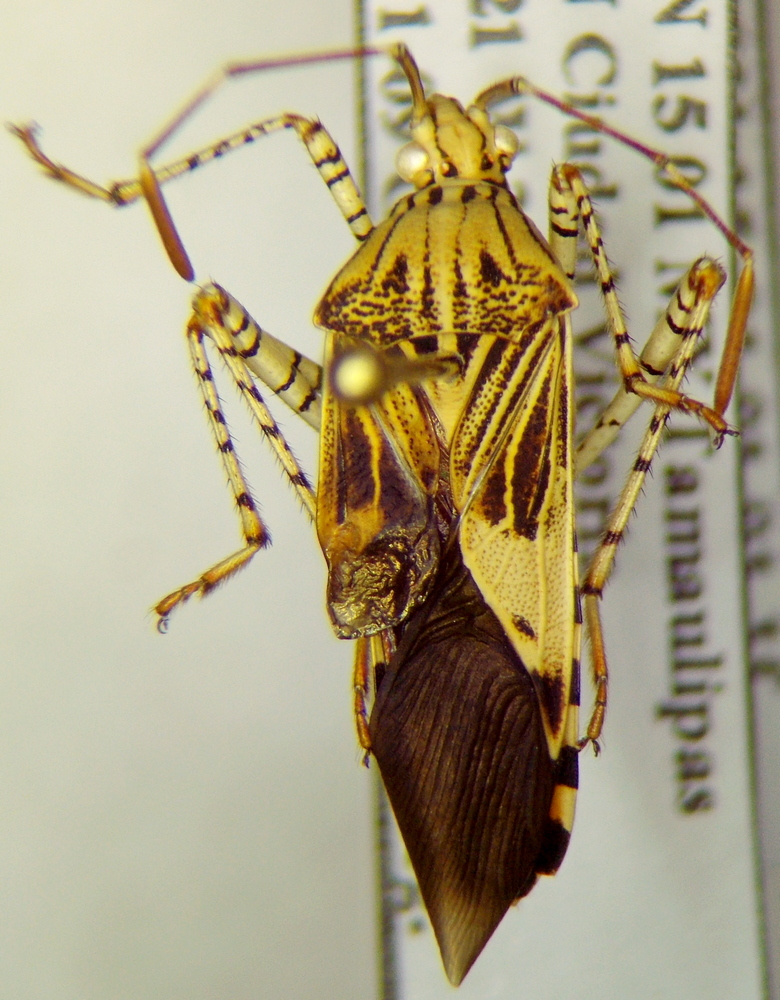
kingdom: Animalia
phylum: Arthropoda
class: Insecta
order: Hemiptera
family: Coreidae
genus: Hypselonotus
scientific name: Hypselonotus punctiventris
